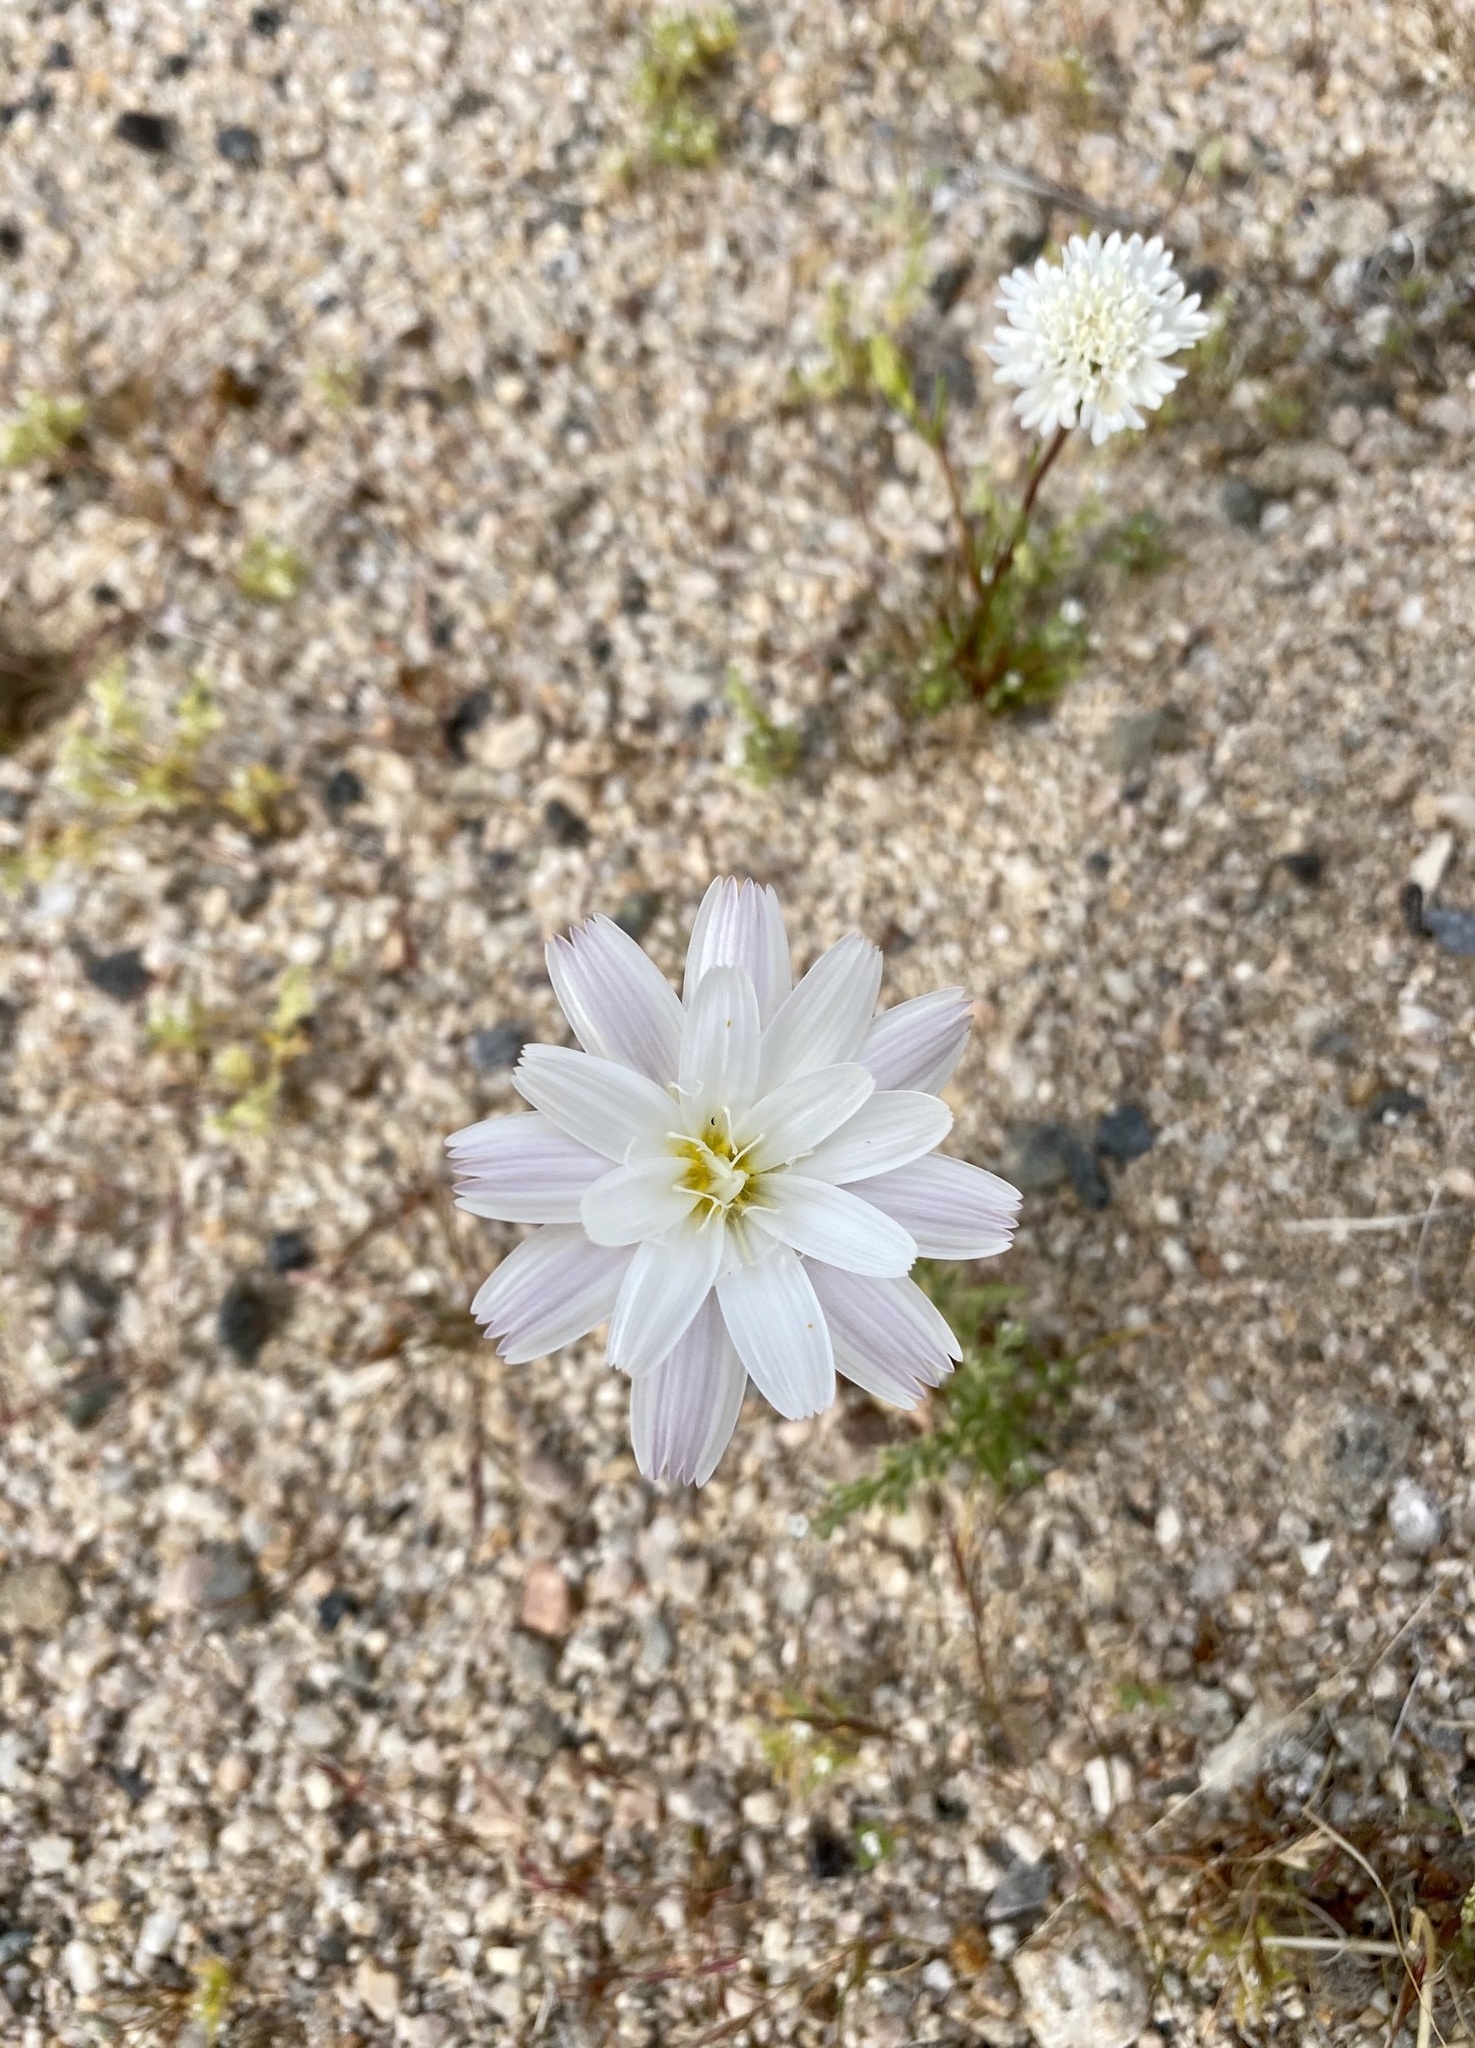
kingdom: Plantae
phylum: Tracheophyta
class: Magnoliopsida
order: Asterales
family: Asteraceae
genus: Rafinesquia
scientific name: Rafinesquia neomexicana
